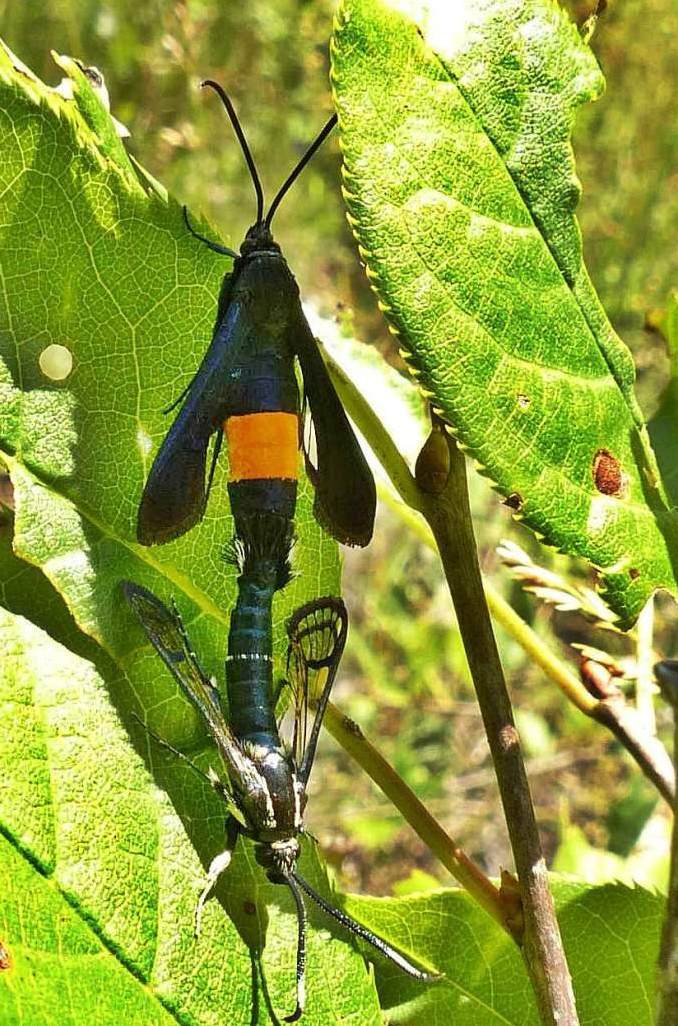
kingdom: Animalia
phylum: Arthropoda
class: Insecta
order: Lepidoptera
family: Sesiidae
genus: Synanthedon
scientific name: Synanthedon exitiosa
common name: Peachtree borer moth
